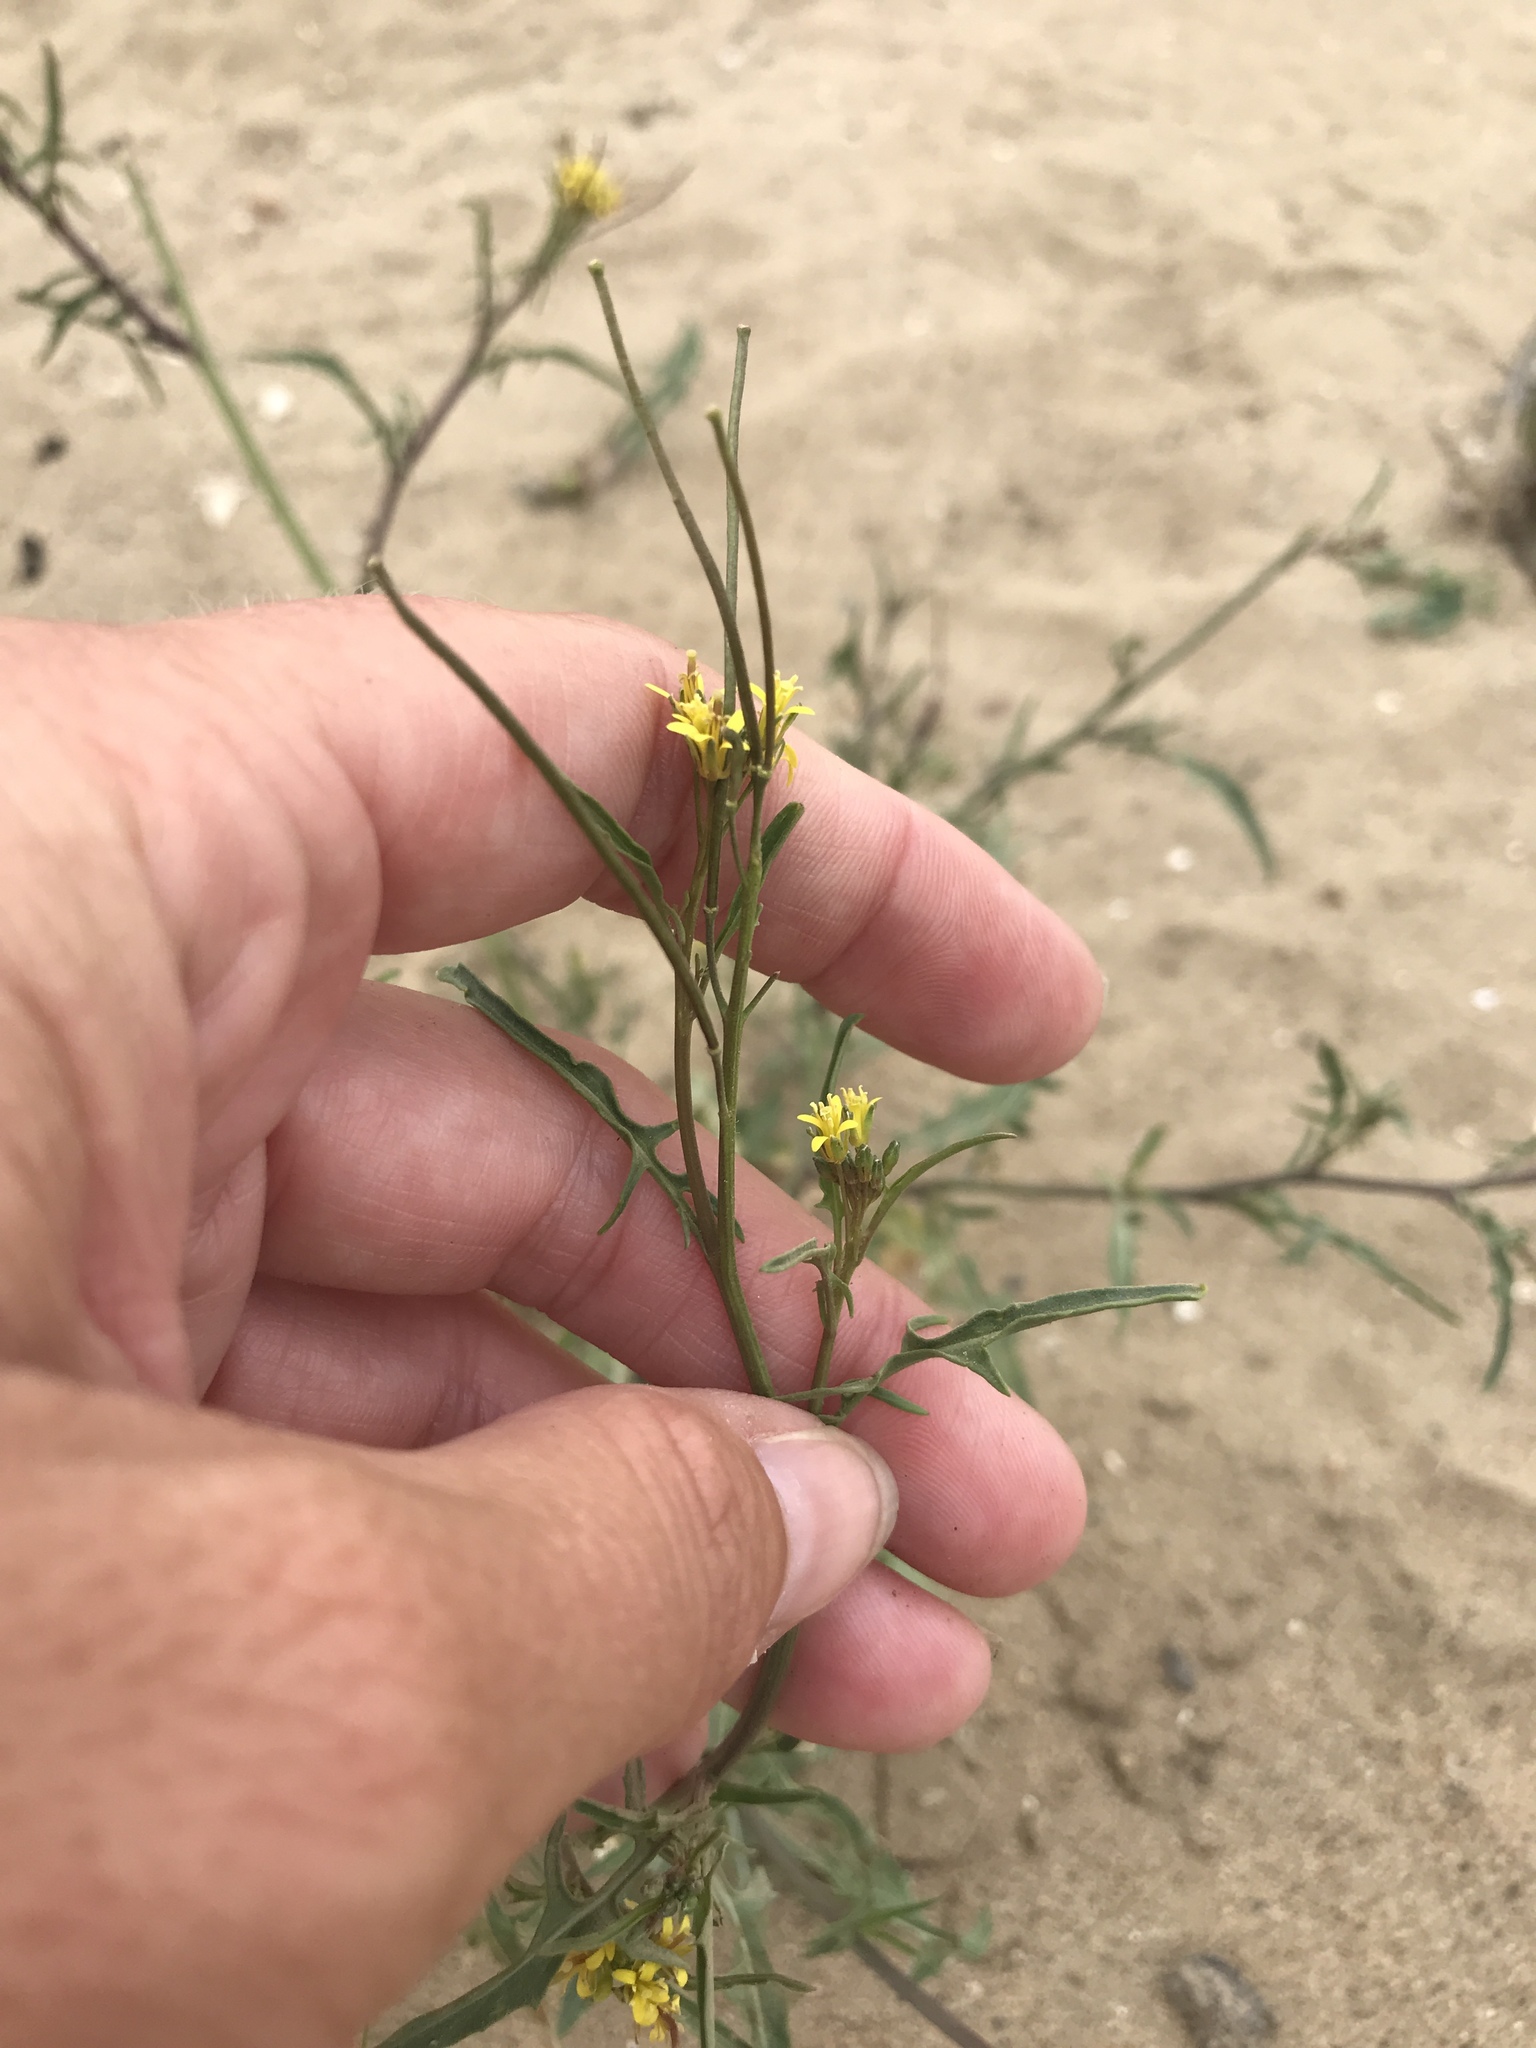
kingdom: Plantae
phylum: Tracheophyta
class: Magnoliopsida
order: Brassicales
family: Brassicaceae
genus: Sisymbrium
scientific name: Sisymbrium irio
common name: London rocket
